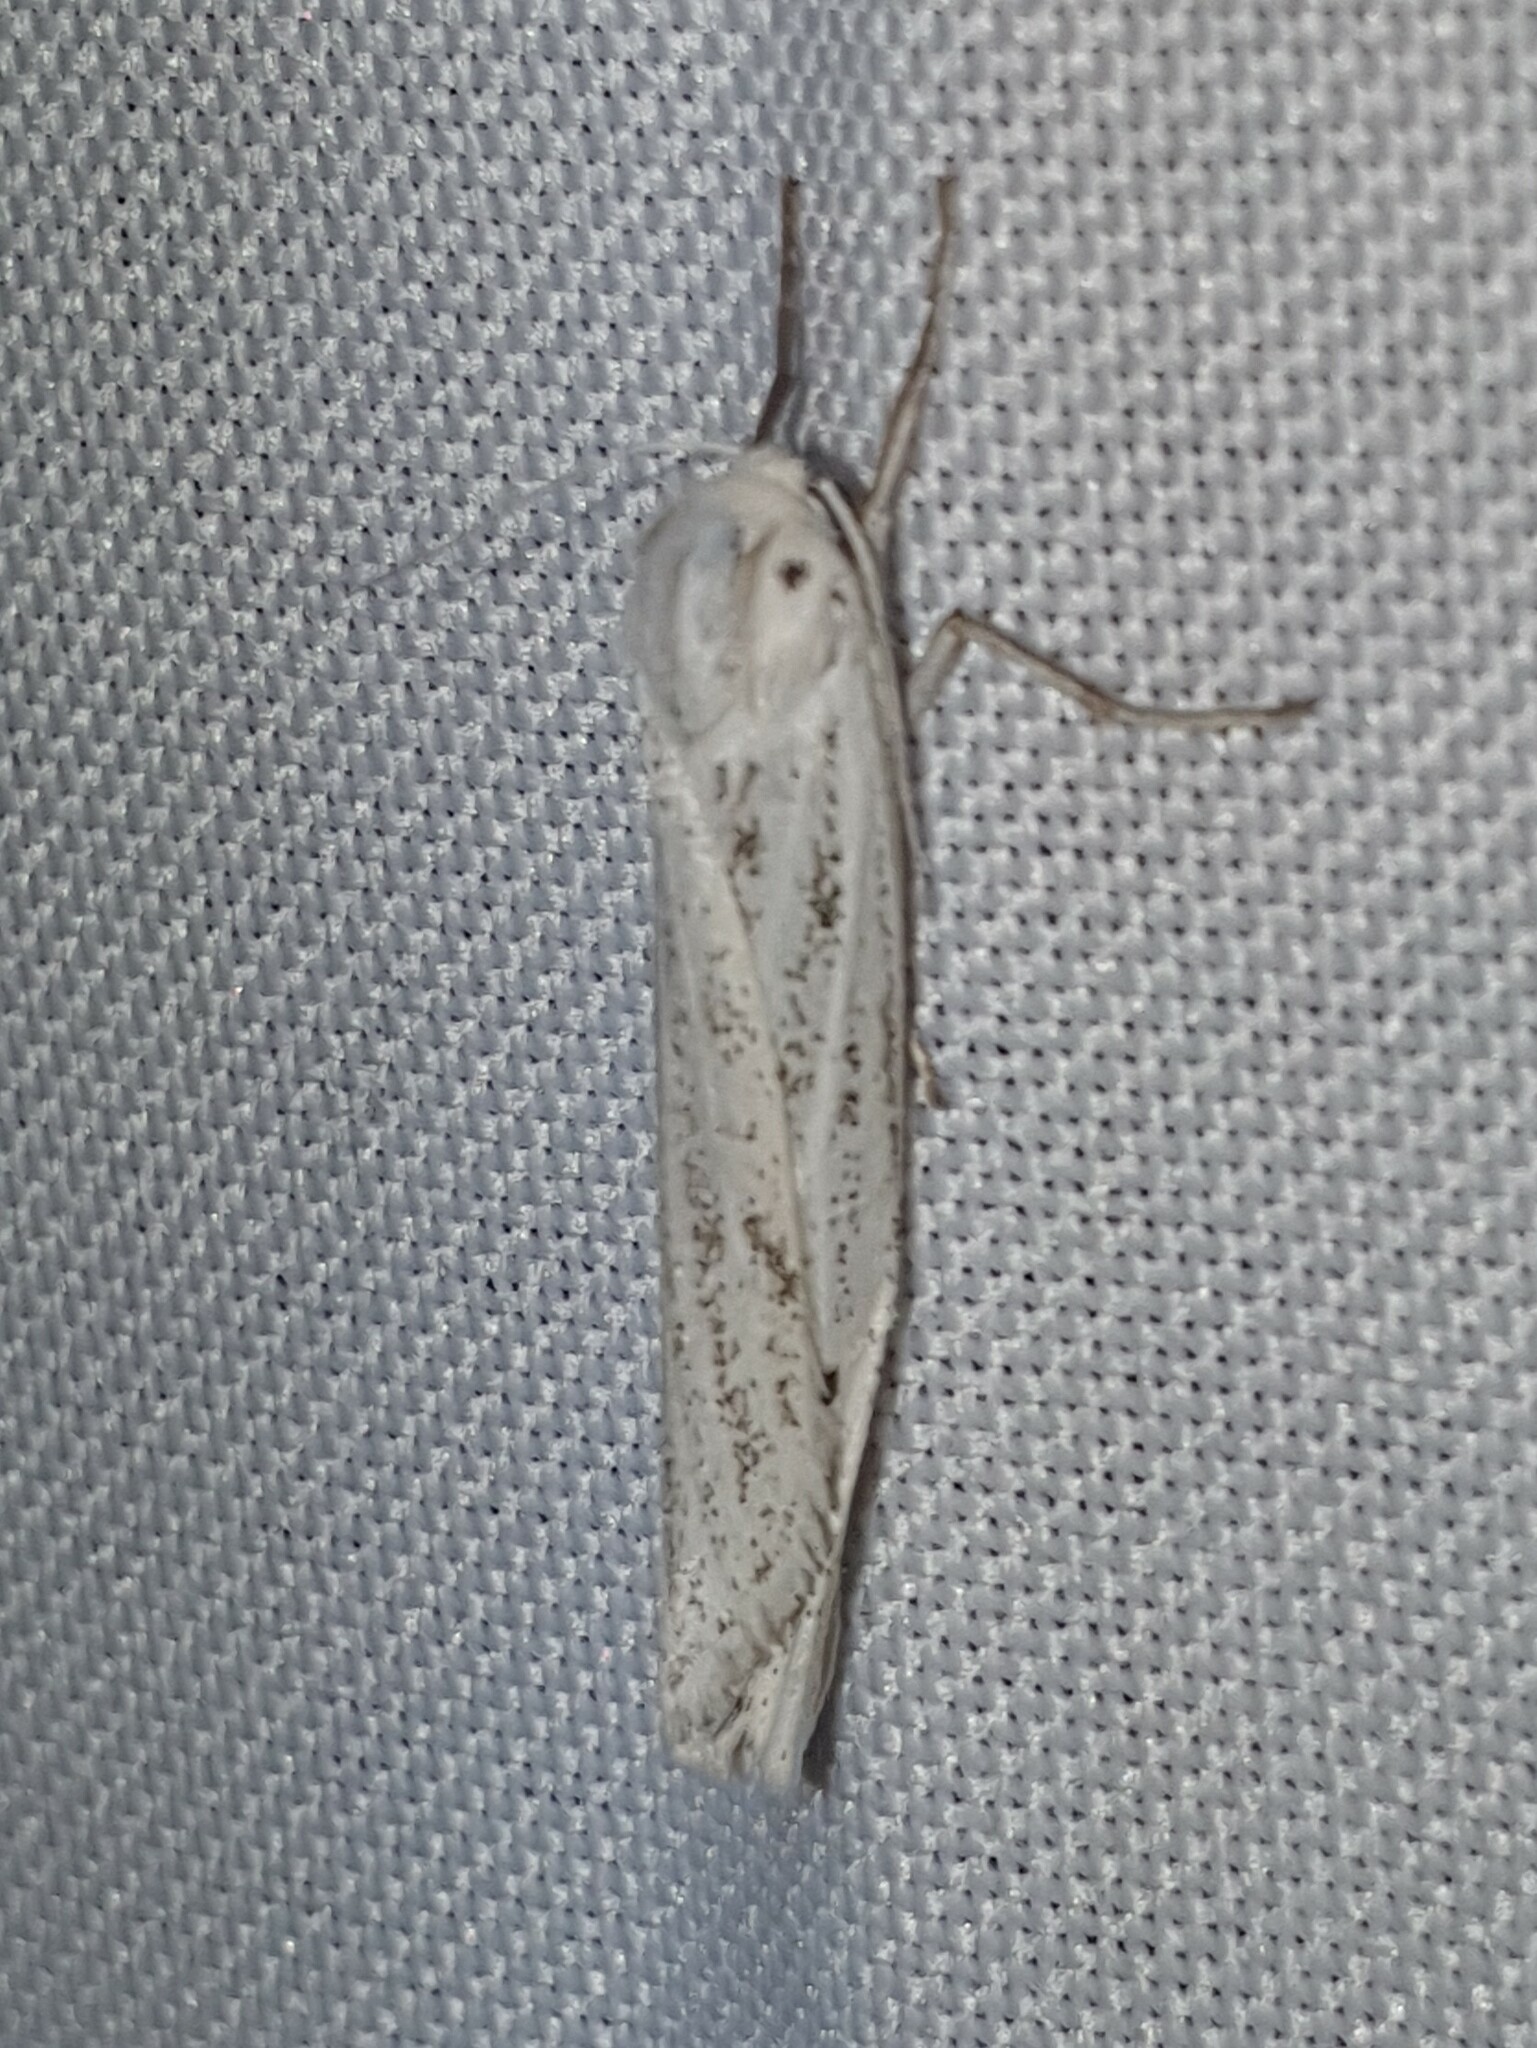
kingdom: Animalia
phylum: Arthropoda
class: Insecta
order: Lepidoptera
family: Erebidae
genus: Coscinia
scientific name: Coscinia cribraria
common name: Speckled footman
